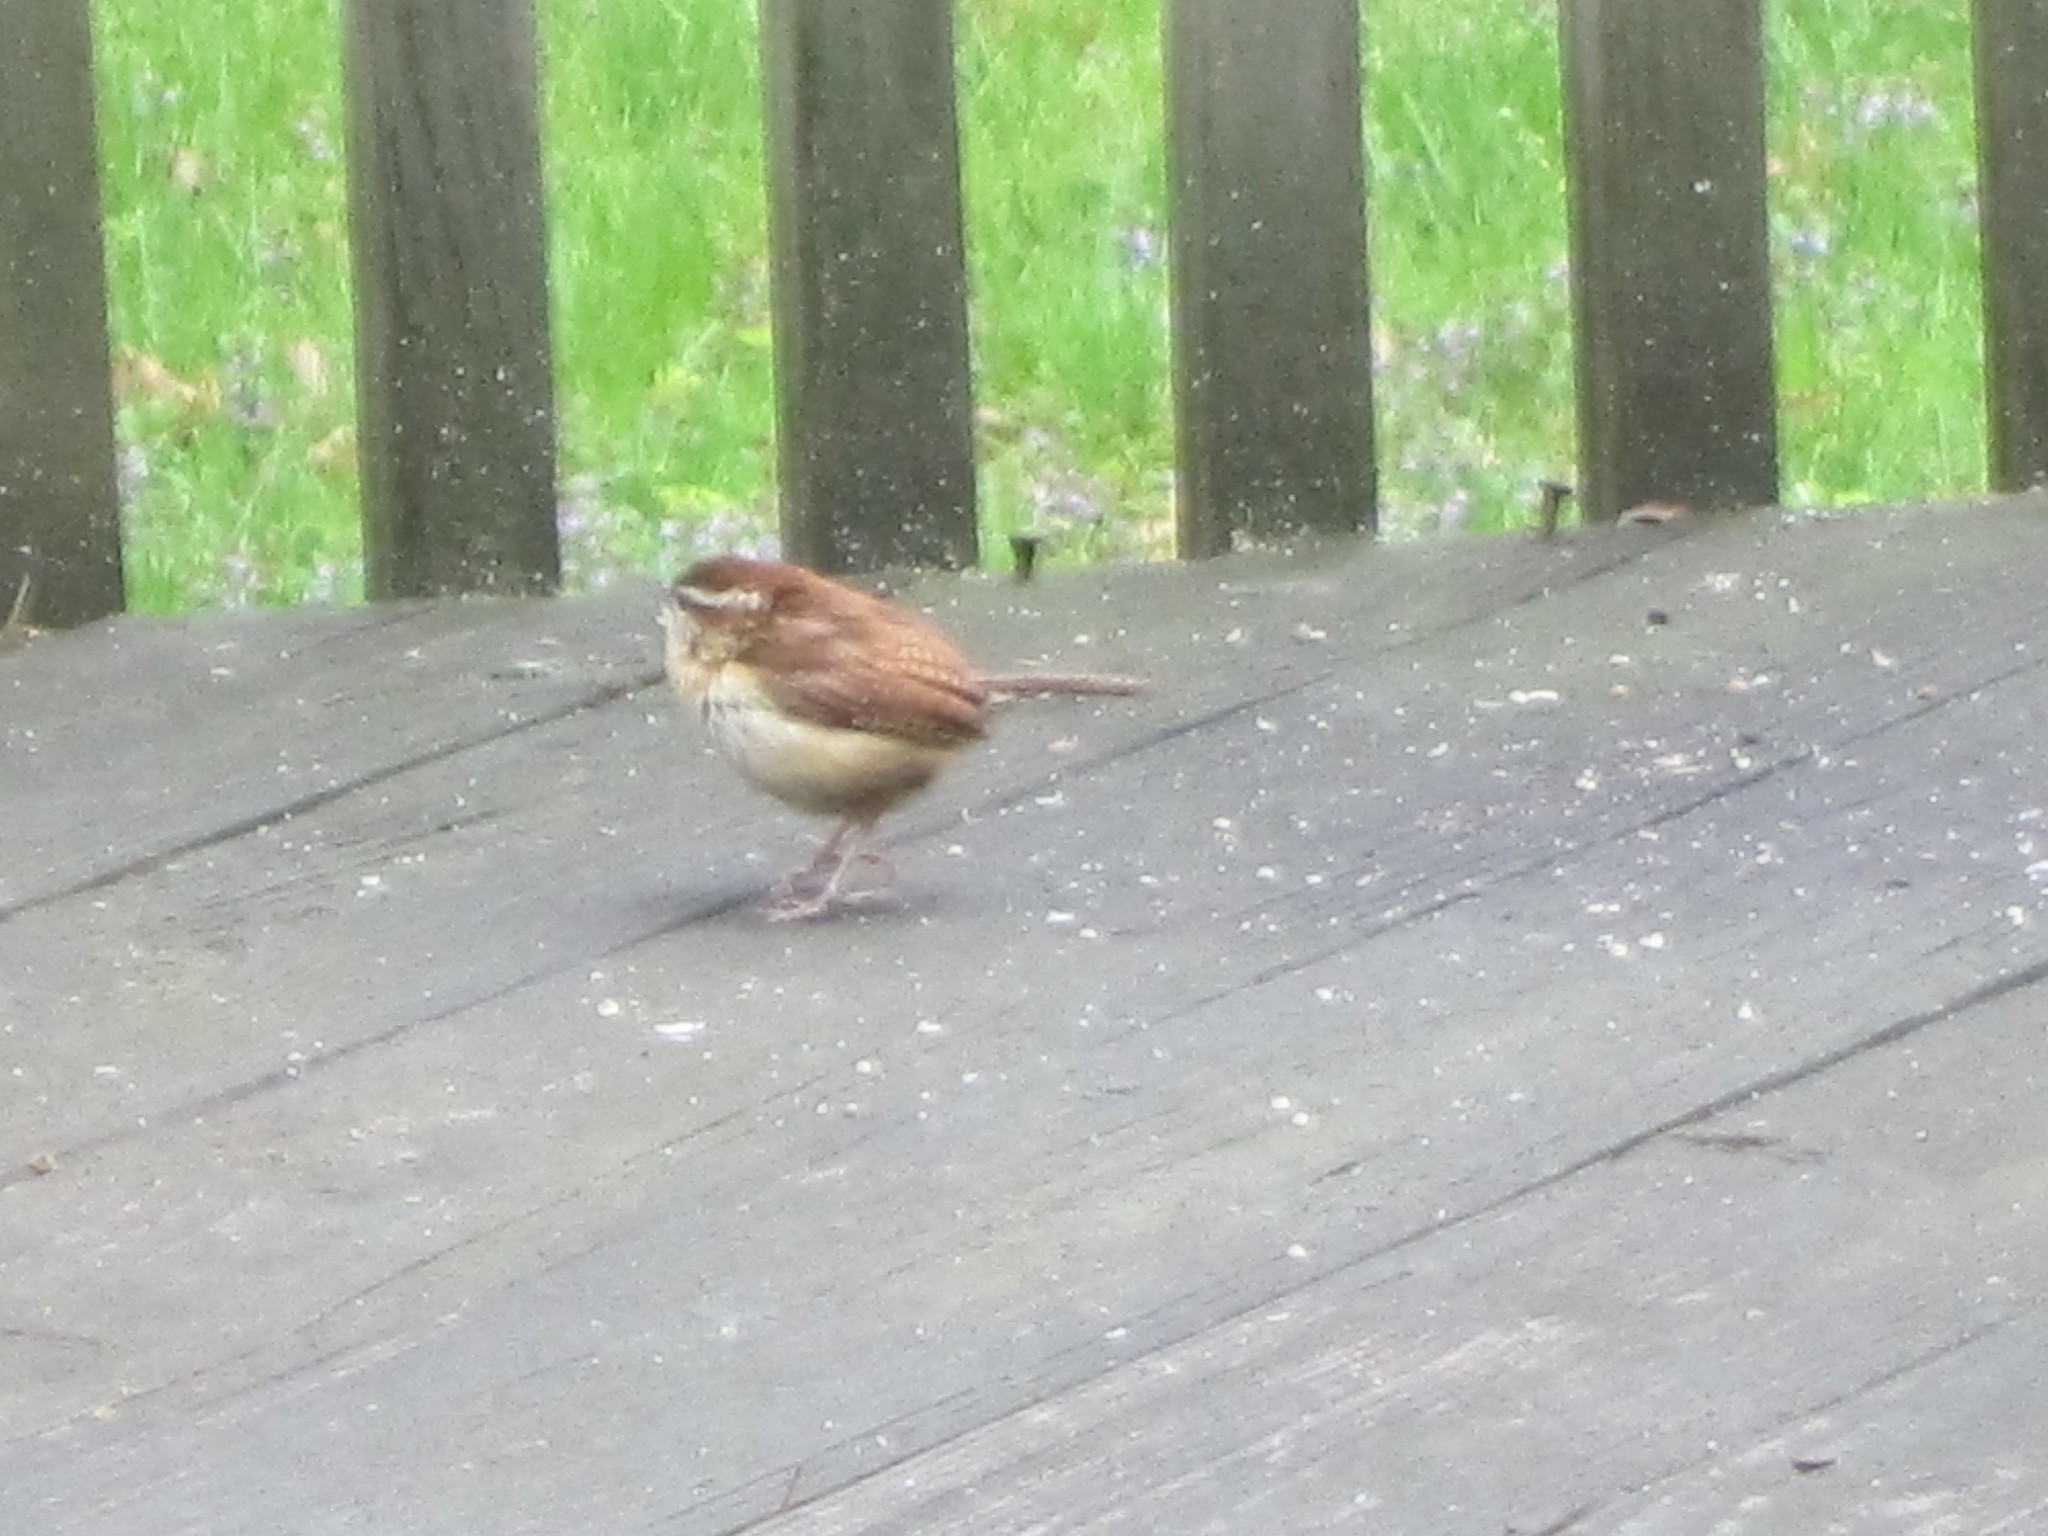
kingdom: Animalia
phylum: Chordata
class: Aves
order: Passeriformes
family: Troglodytidae
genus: Thryothorus
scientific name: Thryothorus ludovicianus
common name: Carolina wren
